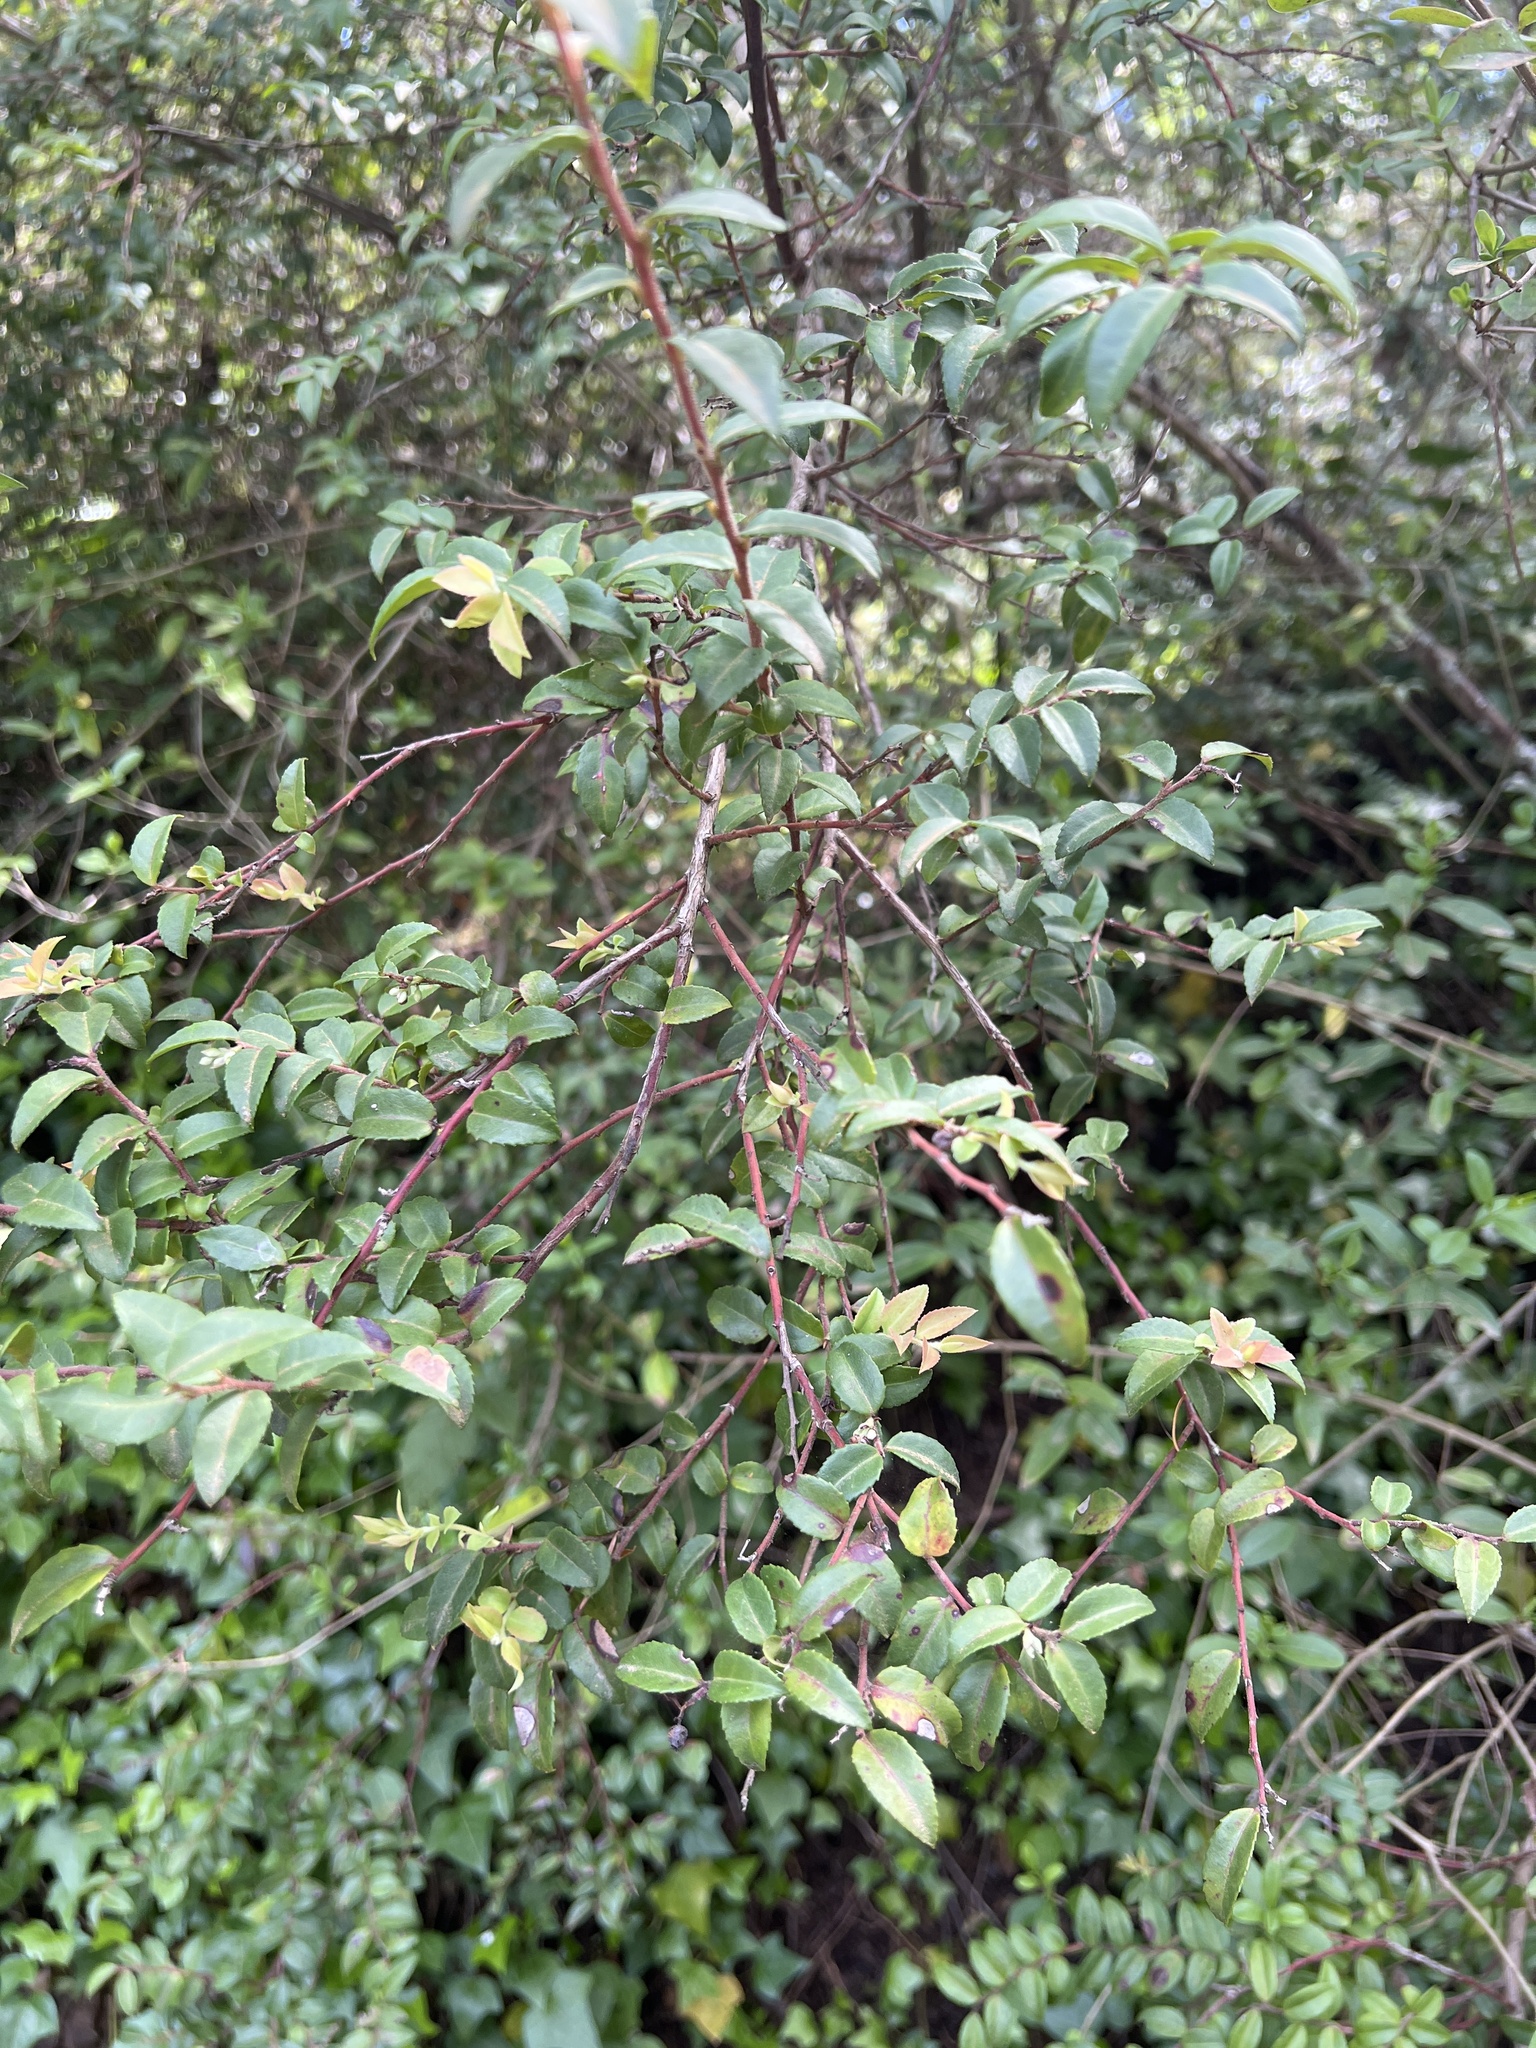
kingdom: Plantae
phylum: Tracheophyta
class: Magnoliopsida
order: Ericales
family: Ericaceae
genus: Vaccinium
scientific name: Vaccinium ovatum
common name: California-huckleberry
